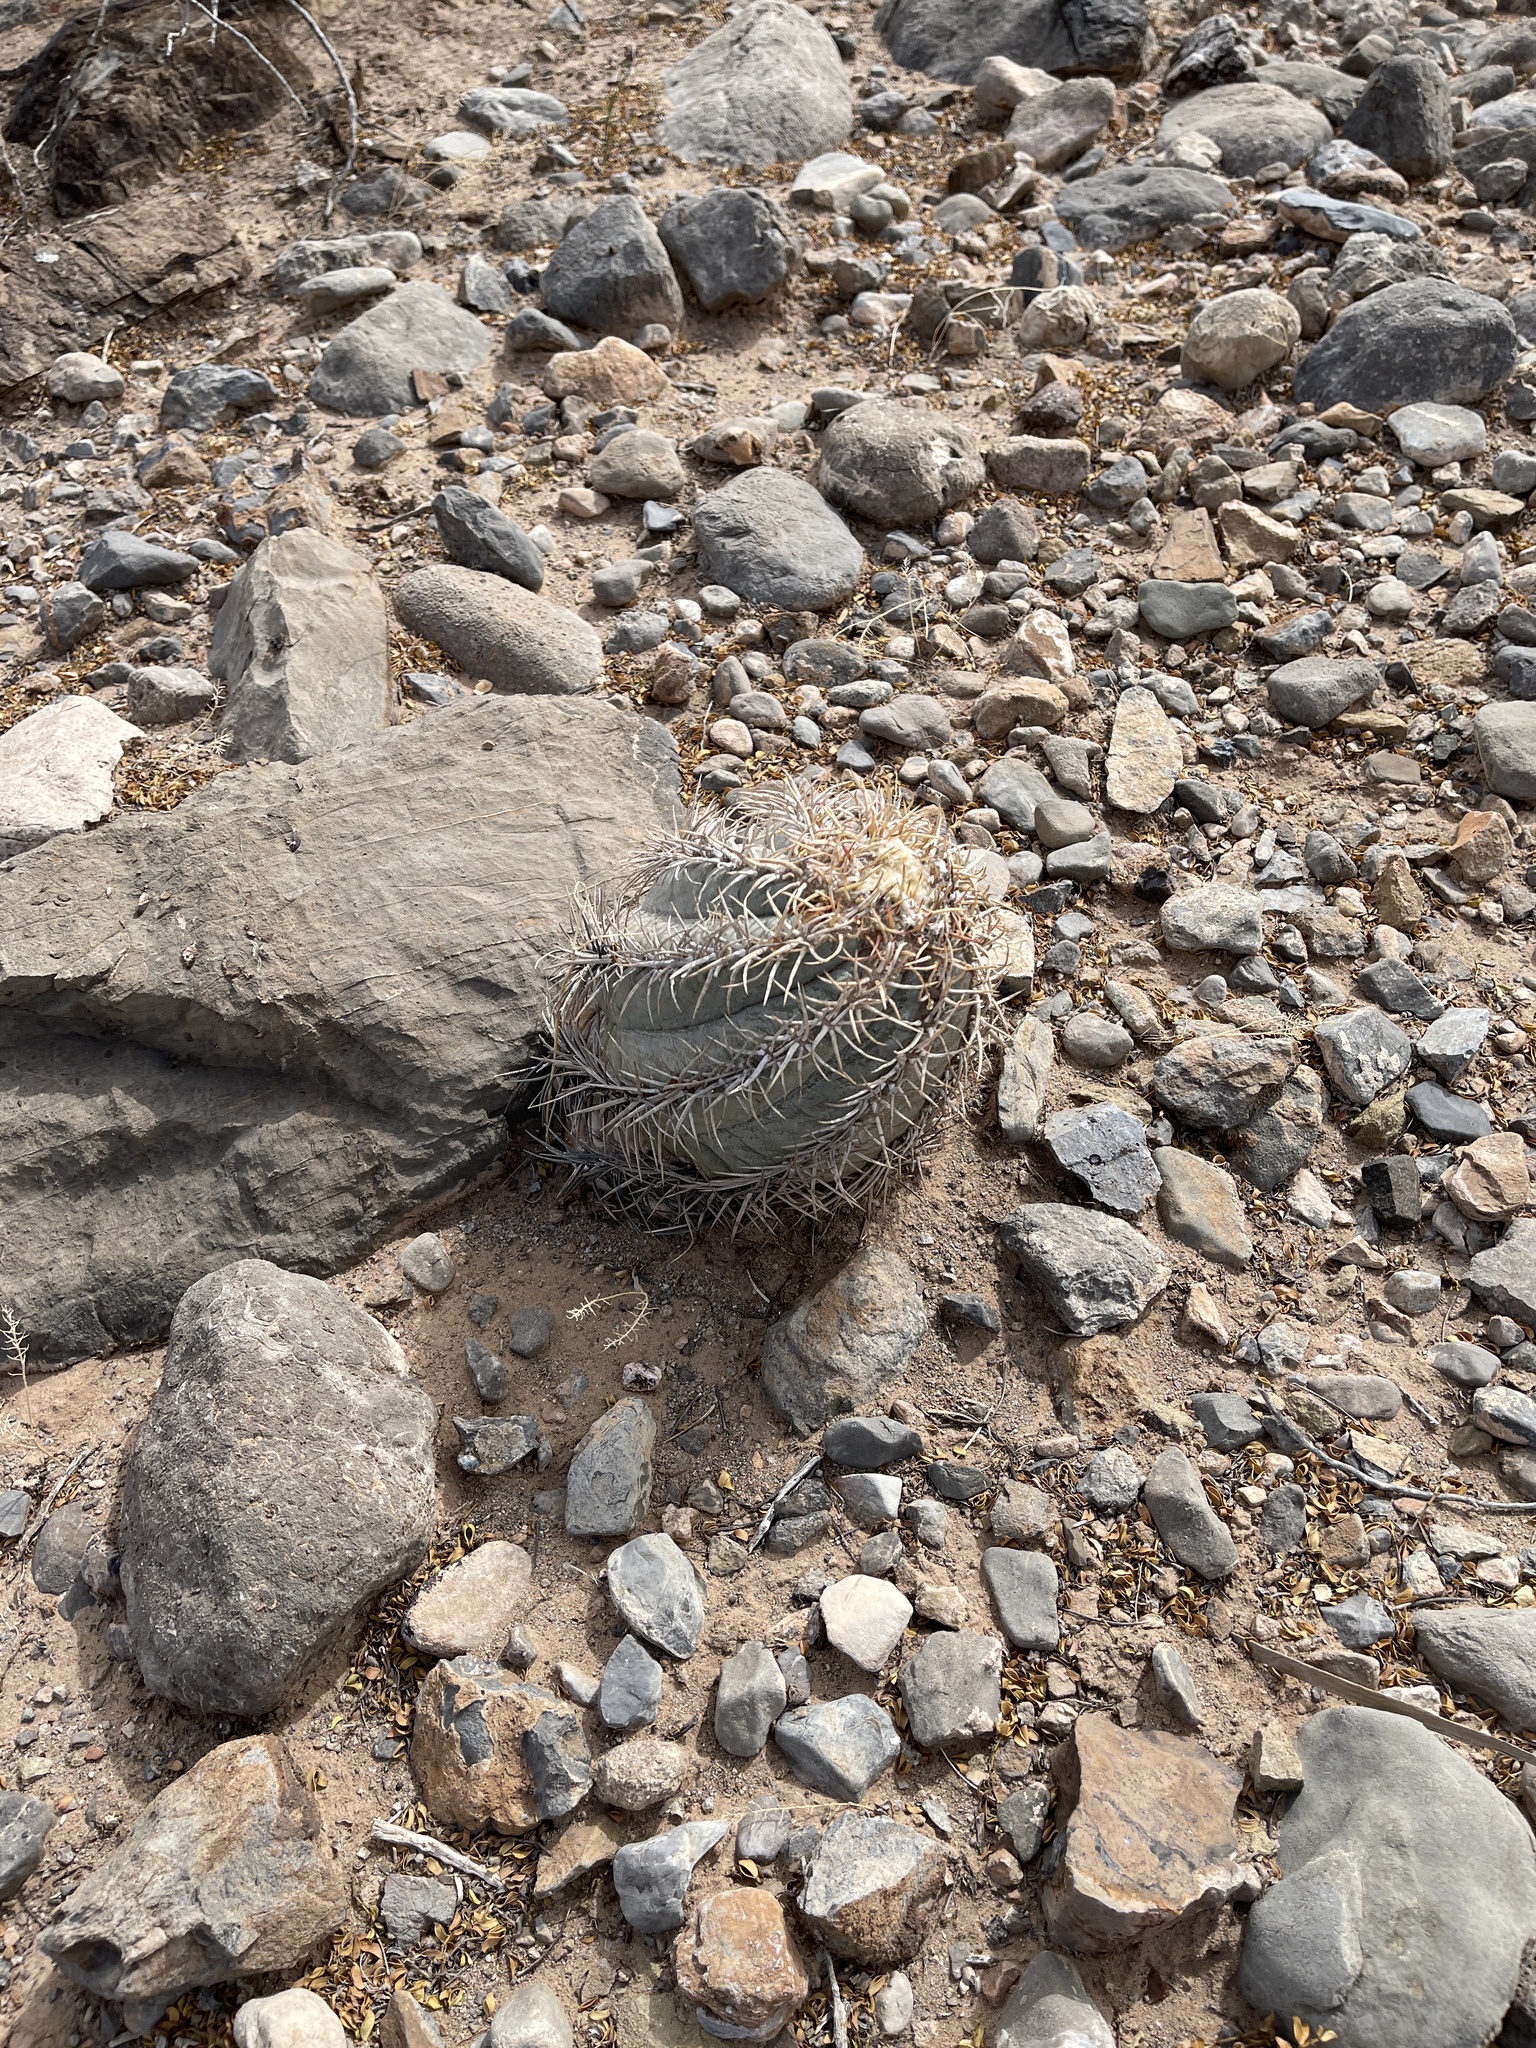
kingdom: Plantae
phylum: Tracheophyta
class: Magnoliopsida
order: Caryophyllales
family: Cactaceae
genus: Echinocactus
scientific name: Echinocactus horizonthalonius
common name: Devilshead
